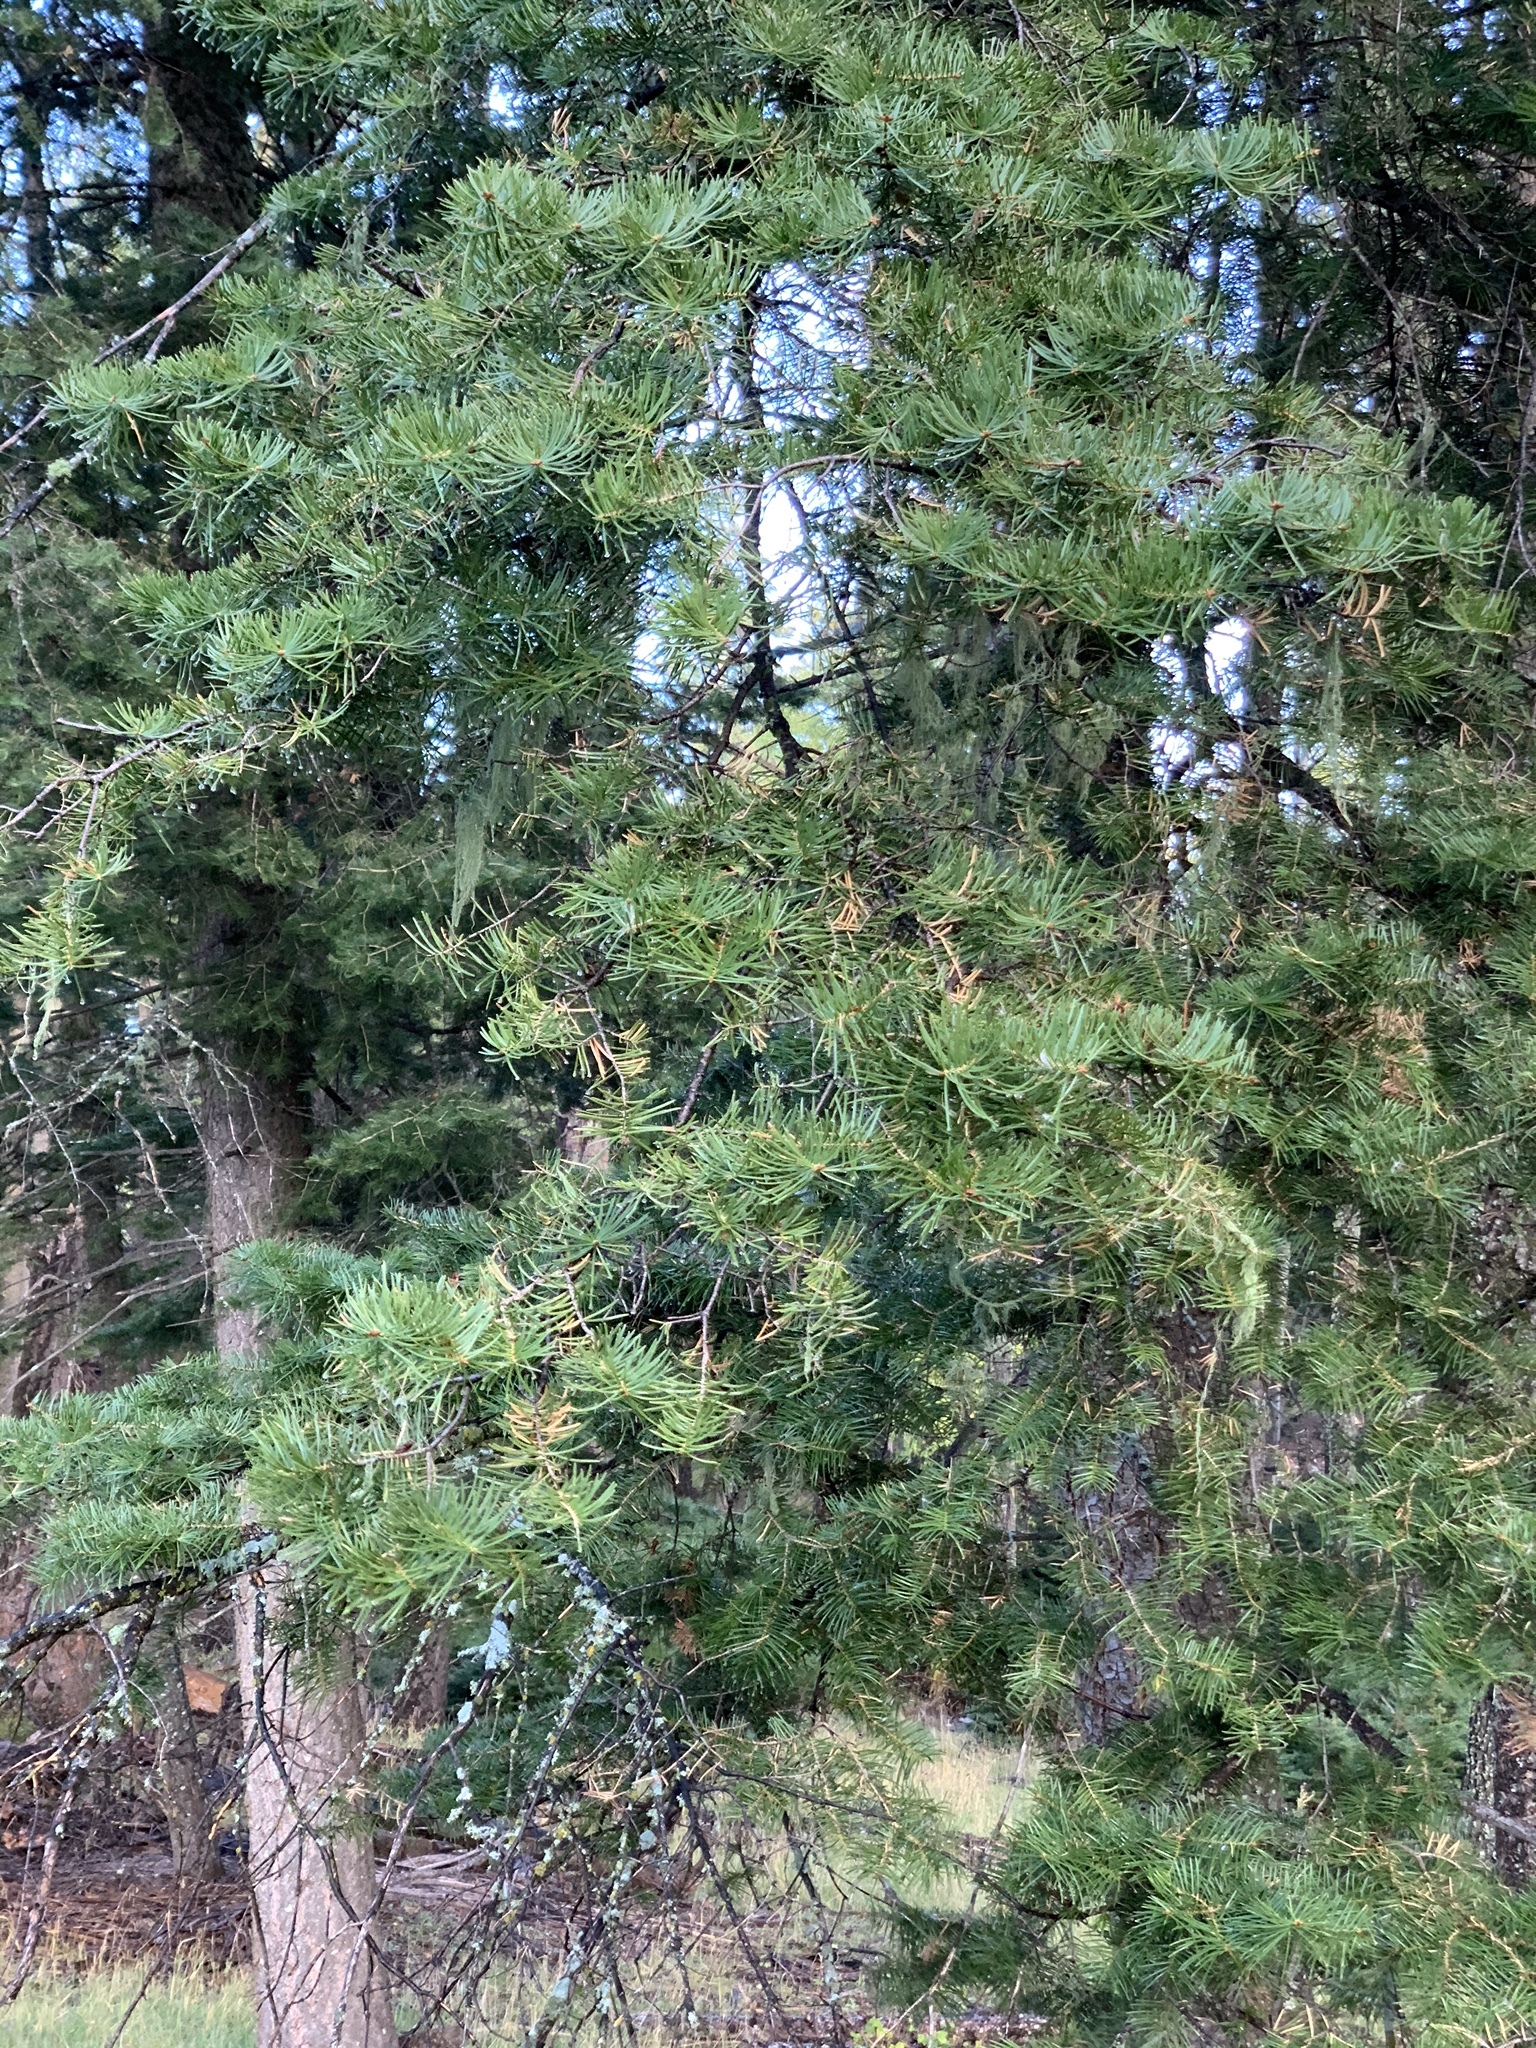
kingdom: Plantae
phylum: Tracheophyta
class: Pinopsida
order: Pinales
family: Pinaceae
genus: Abies
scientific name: Abies concolor
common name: Colorado fir
